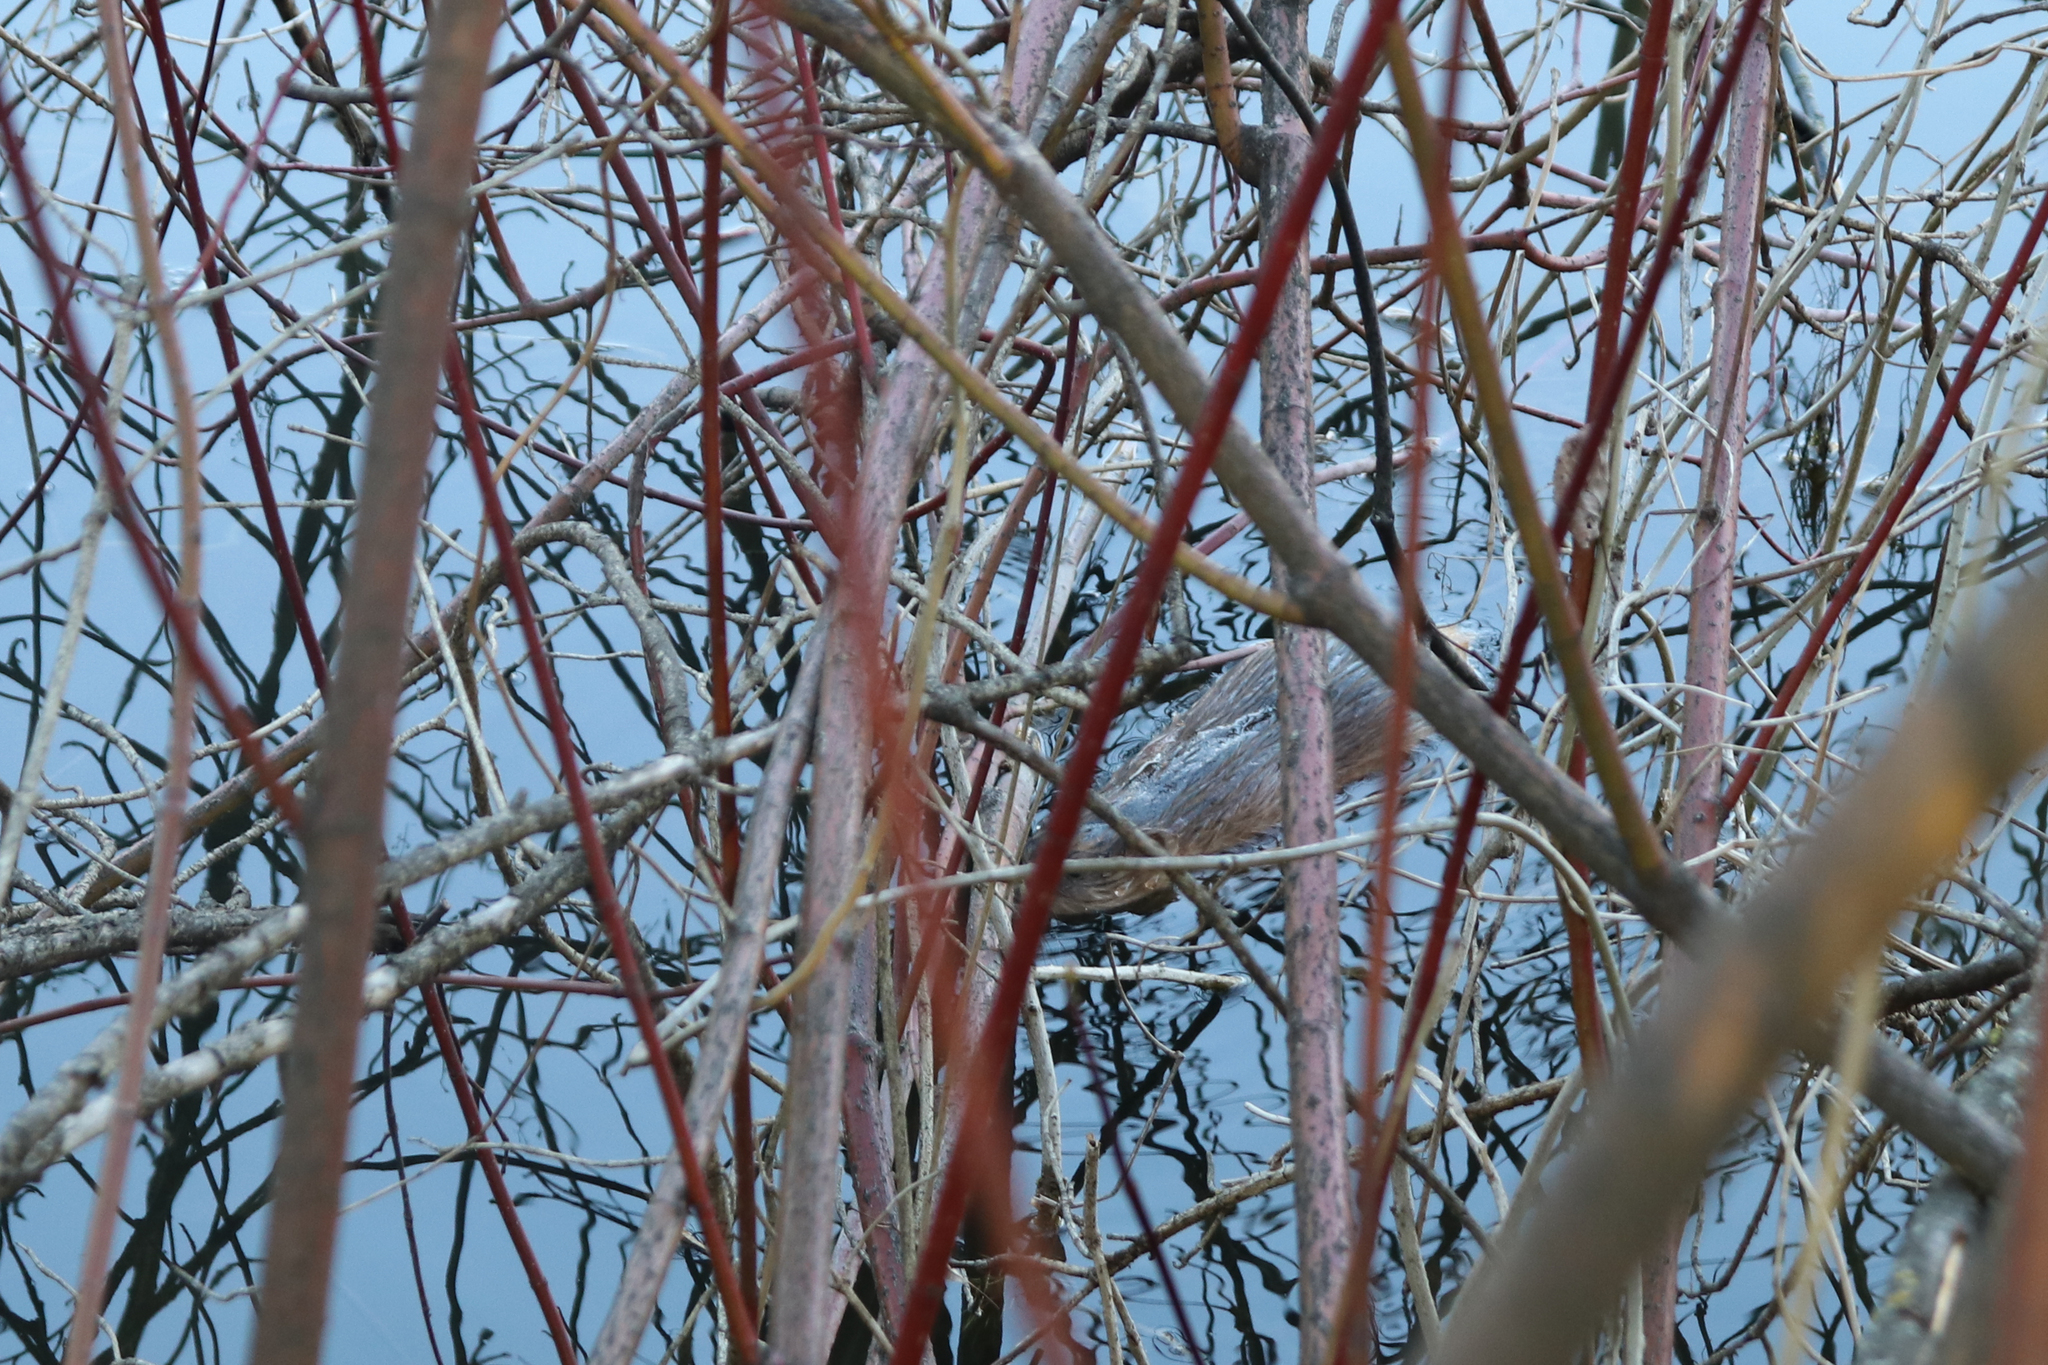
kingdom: Animalia
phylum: Chordata
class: Mammalia
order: Rodentia
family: Cricetidae
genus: Ondatra
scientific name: Ondatra zibethicus
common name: Muskrat
